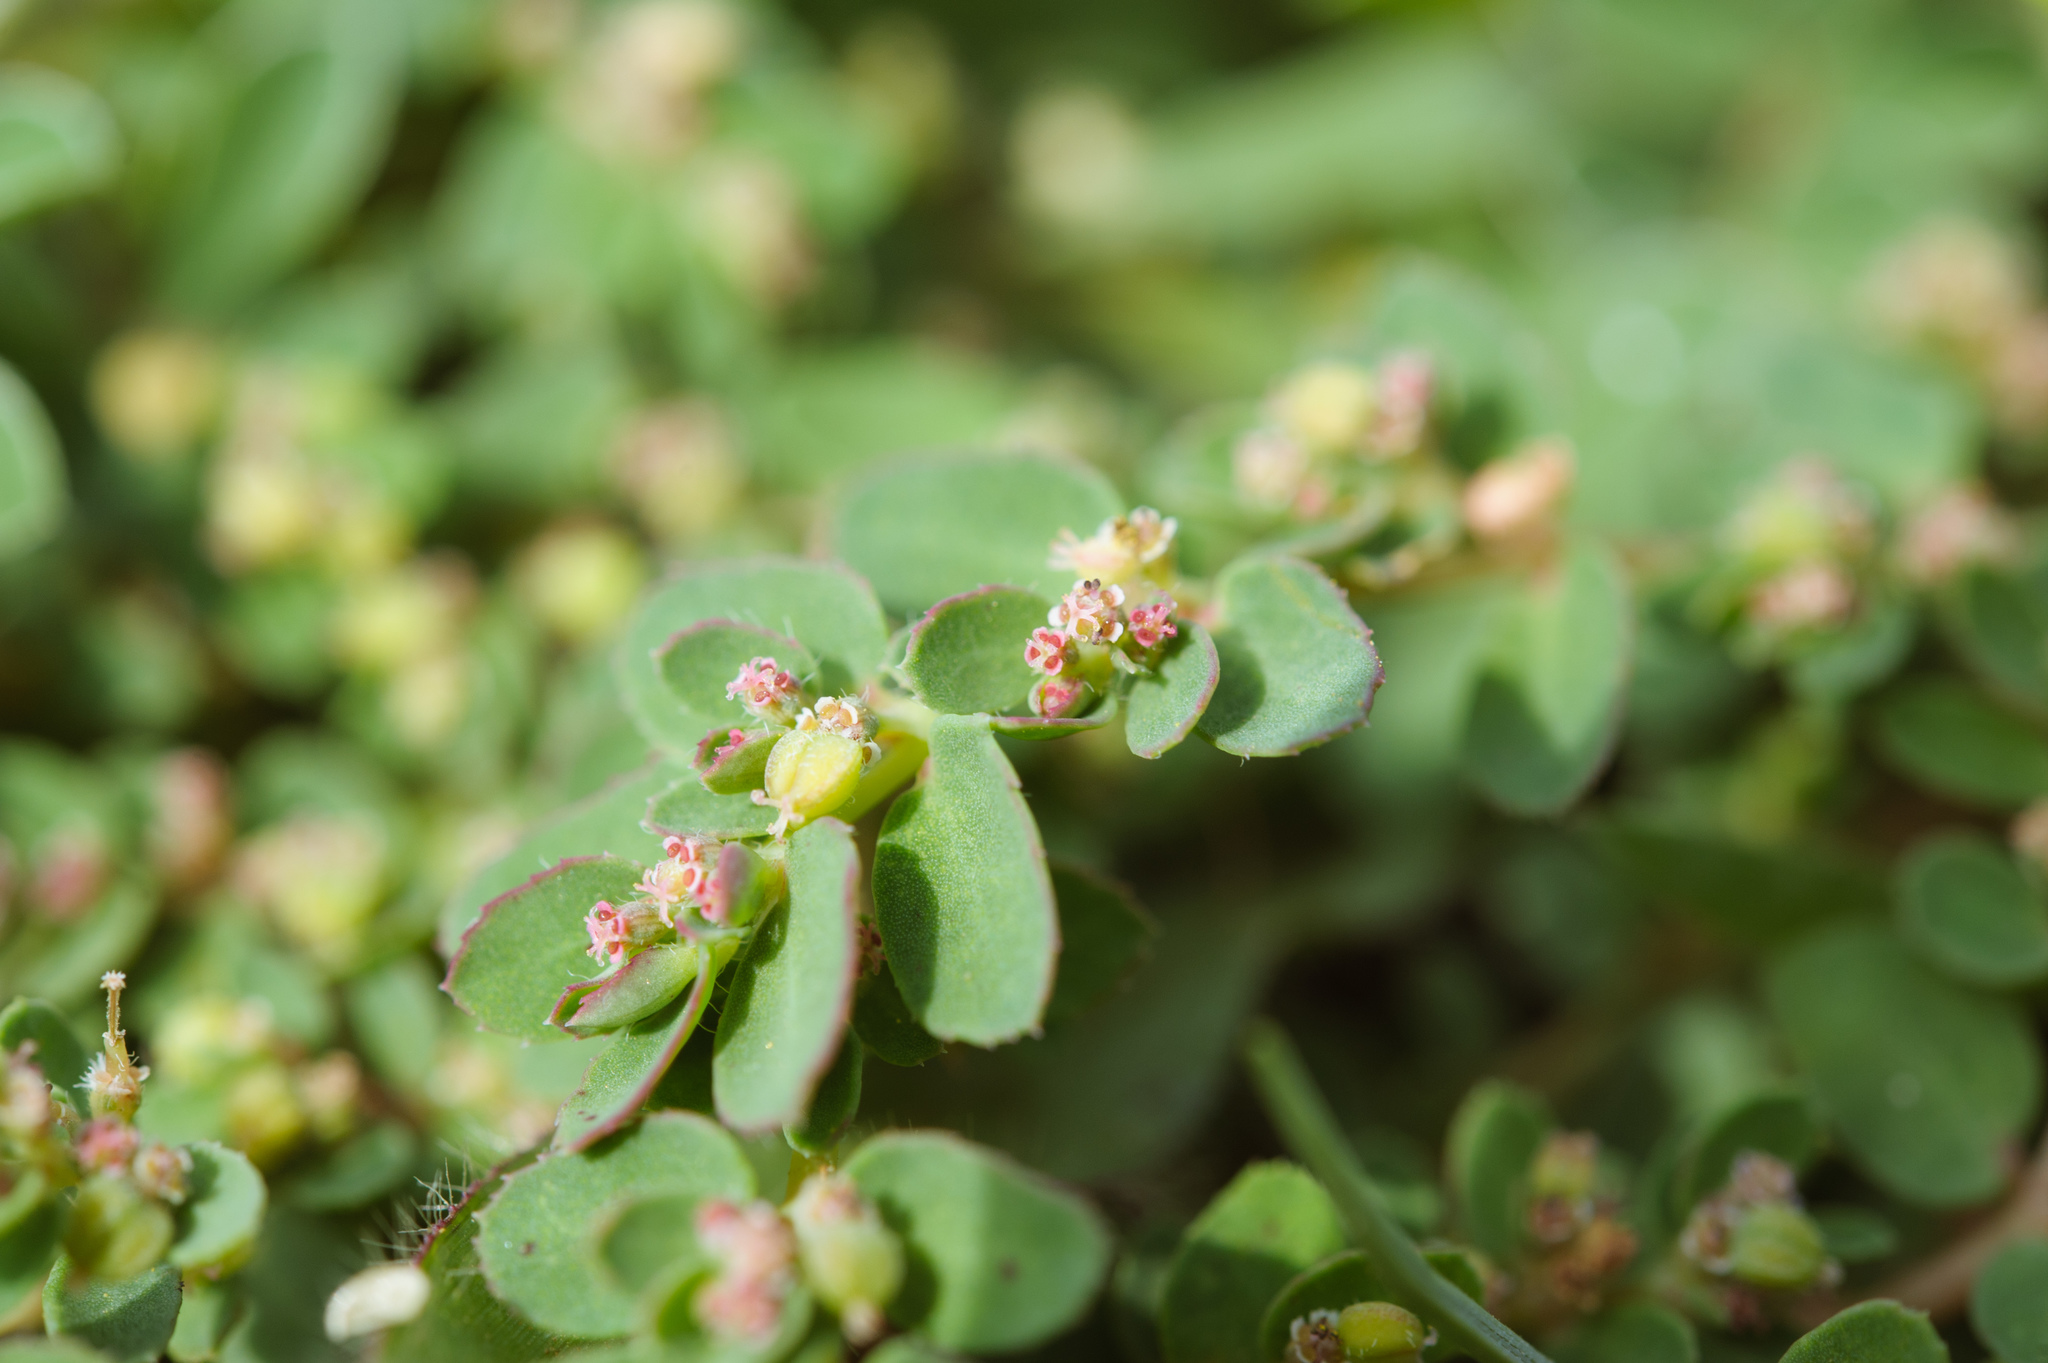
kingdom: Plantae
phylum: Tracheophyta
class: Magnoliopsida
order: Malpighiales
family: Euphorbiaceae
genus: Euphorbia
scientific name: Euphorbia prostrata
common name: Prostrate sandmat
